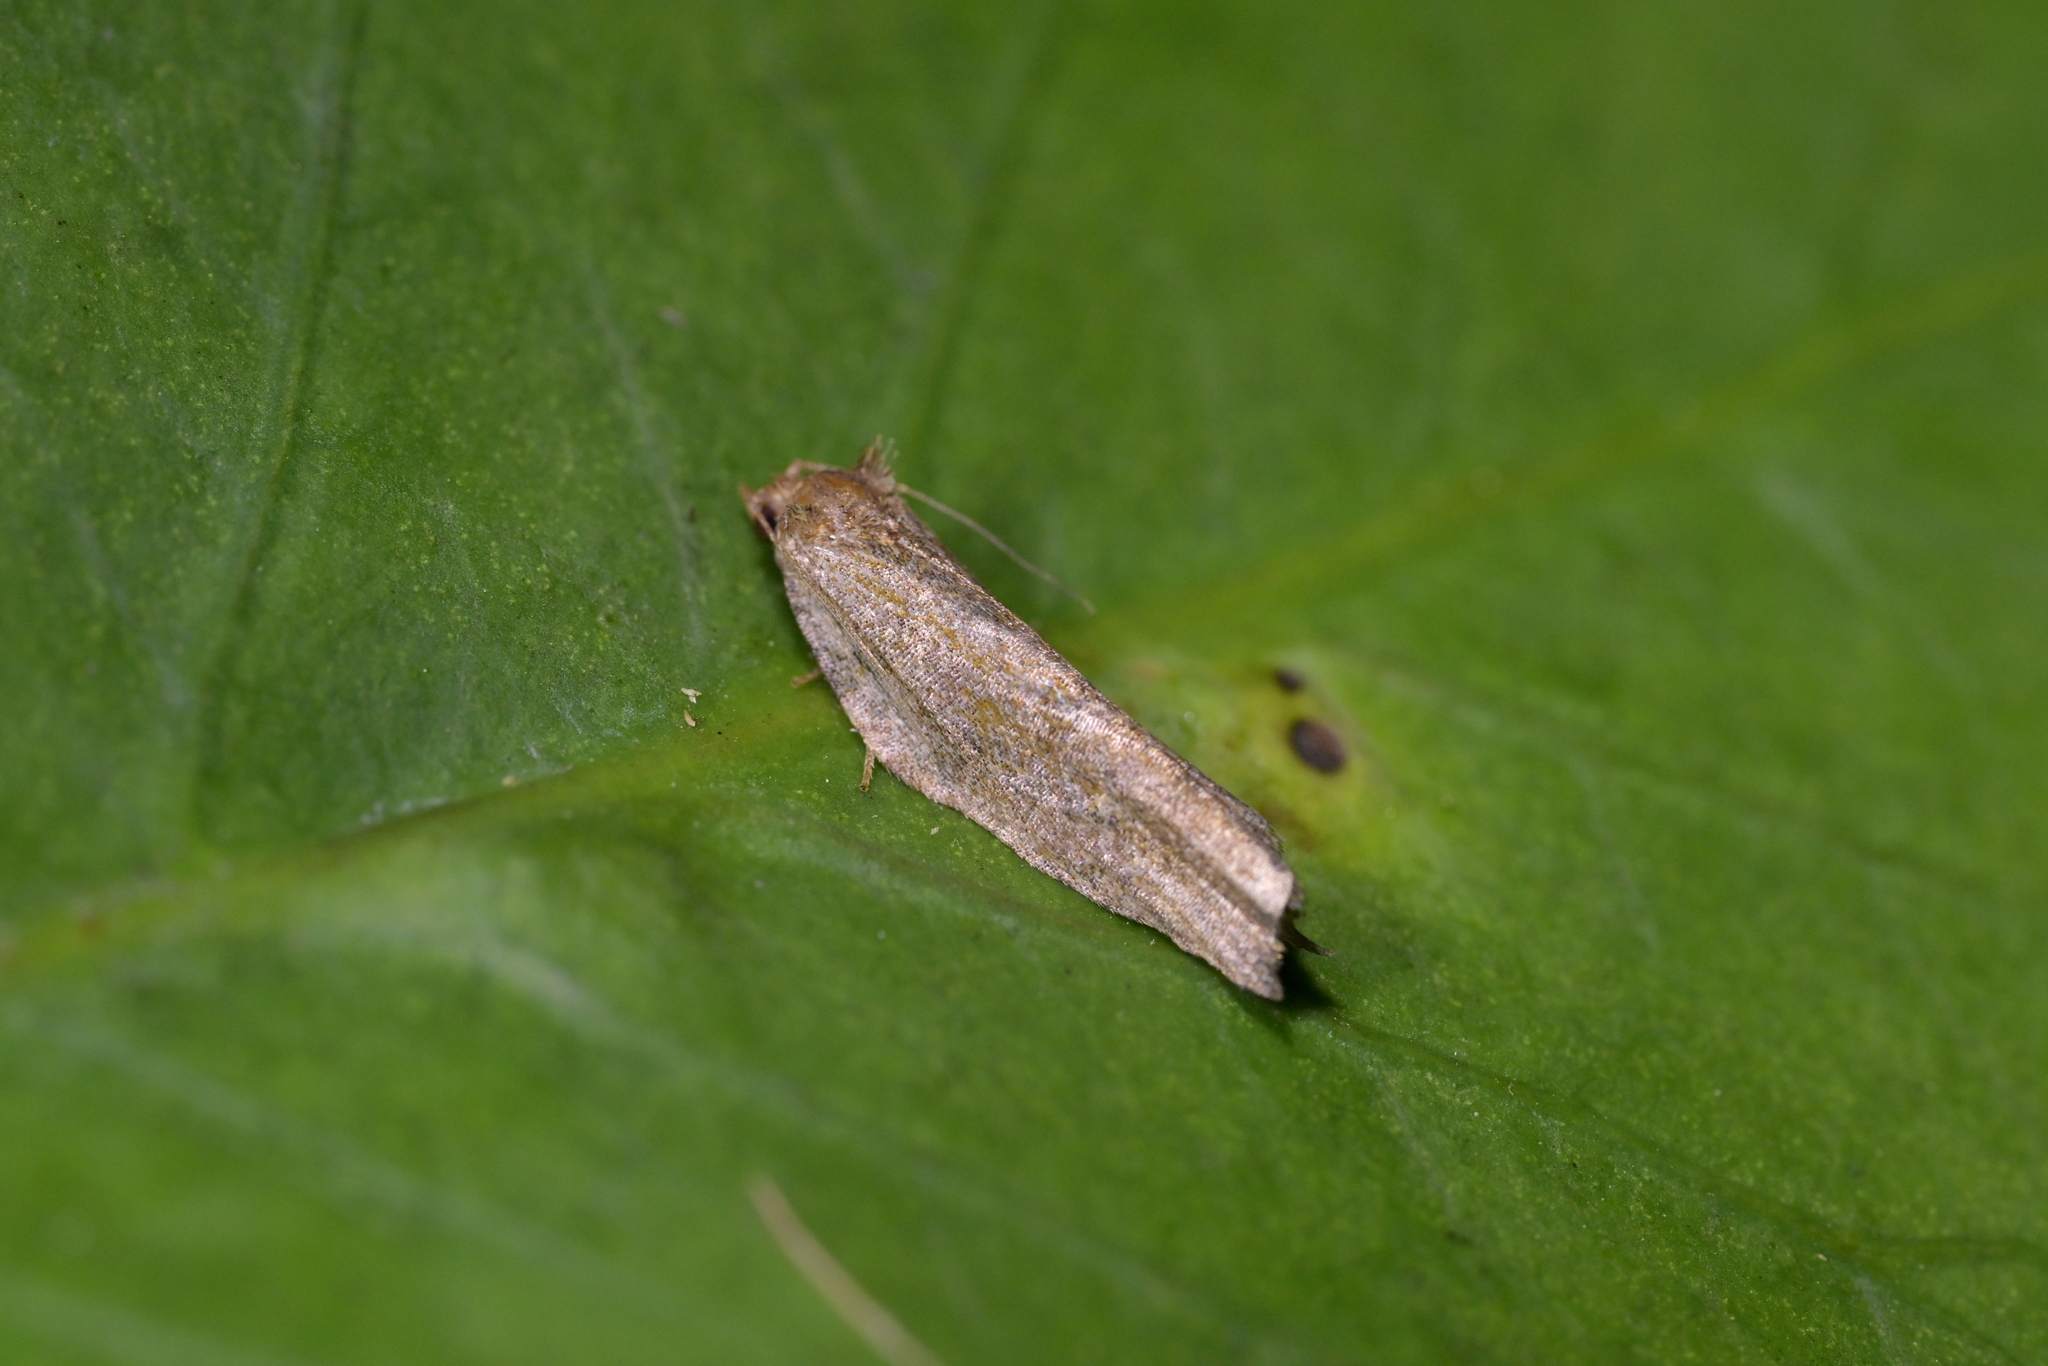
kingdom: Animalia
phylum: Arthropoda
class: Insecta
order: Lepidoptera
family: Tortricidae
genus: Epalxiphora
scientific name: Epalxiphora axenana
